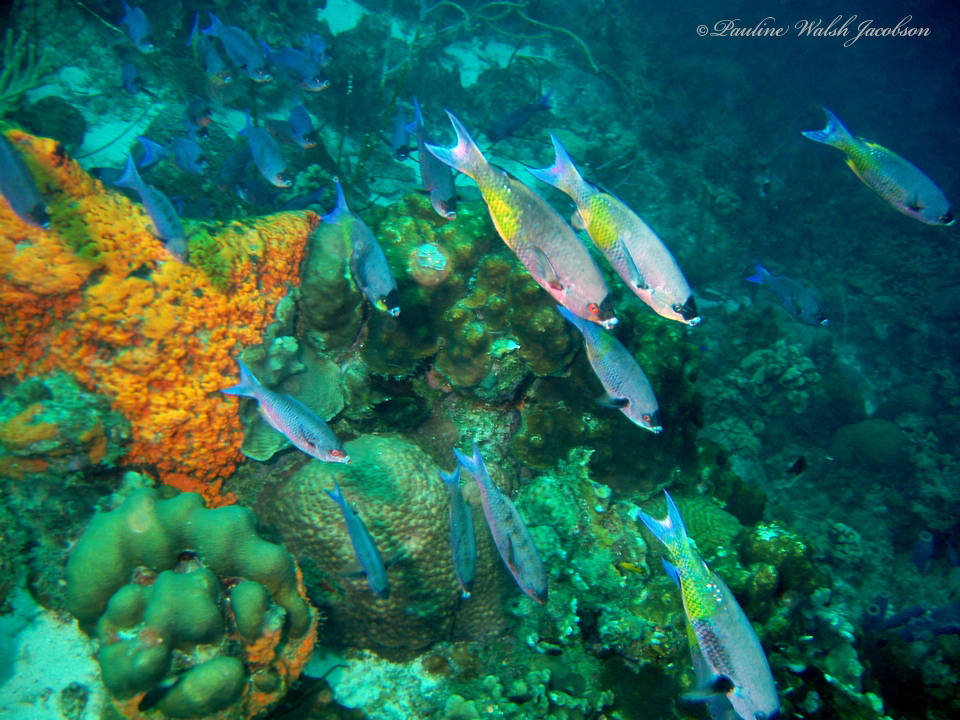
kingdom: Animalia
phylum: Chordata
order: Perciformes
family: Labridae
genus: Bodianus
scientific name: Bodianus
